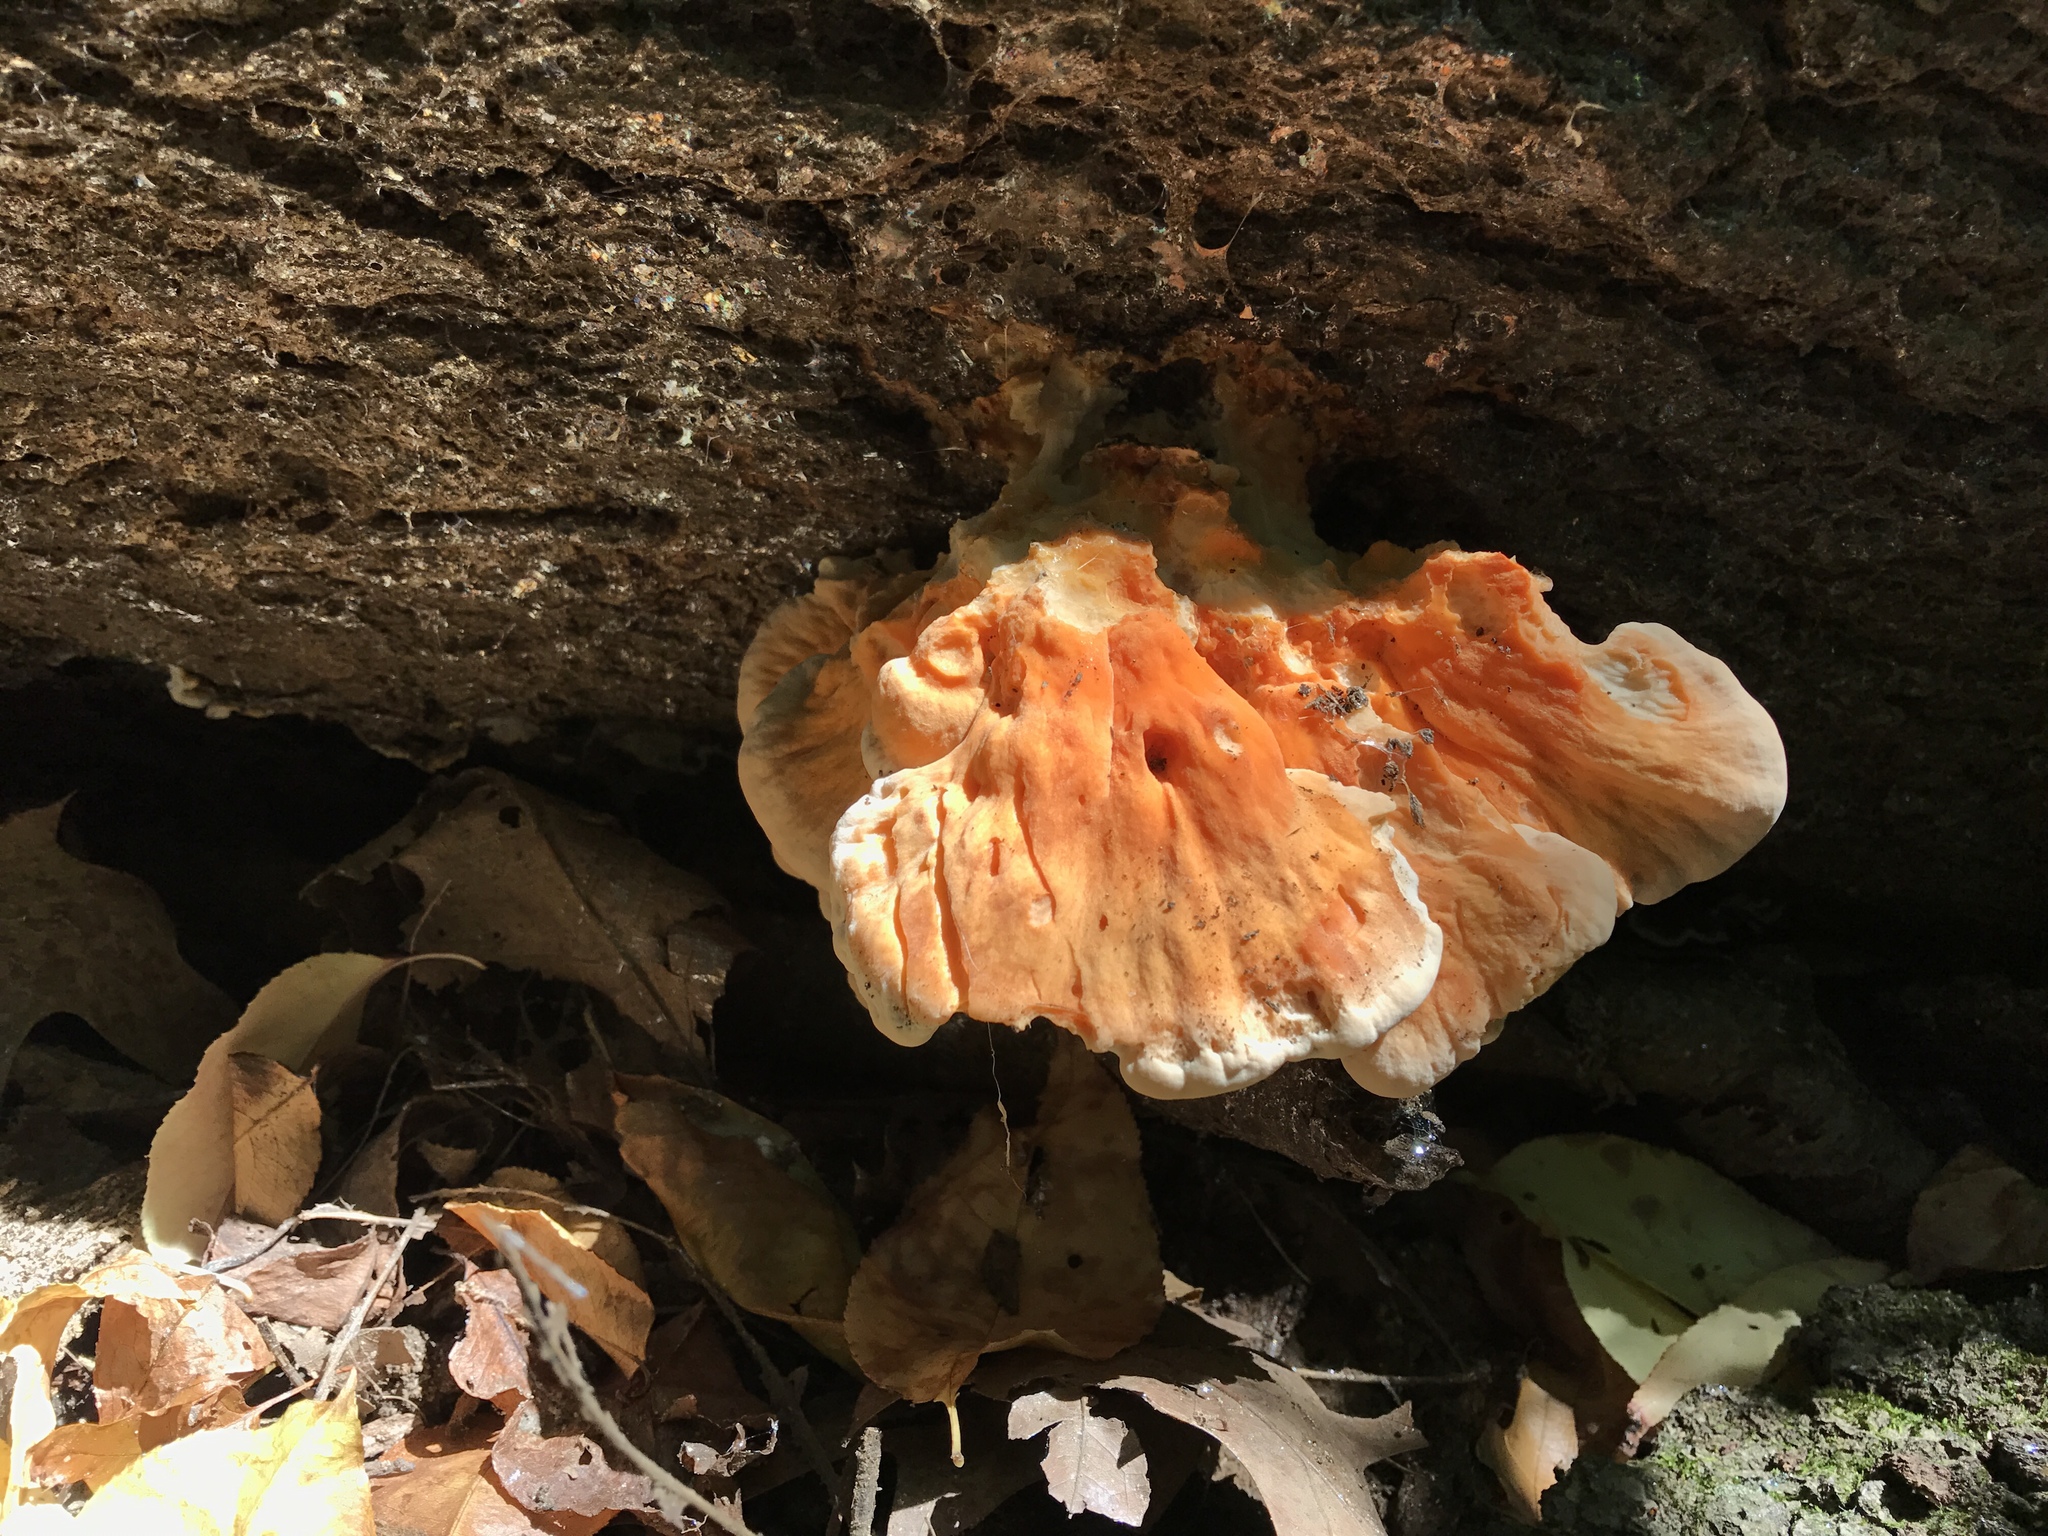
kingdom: Fungi
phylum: Basidiomycota
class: Agaricomycetes
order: Polyporales
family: Laetiporaceae
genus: Laetiporus
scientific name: Laetiporus sulphureus
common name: Chicken of the woods
